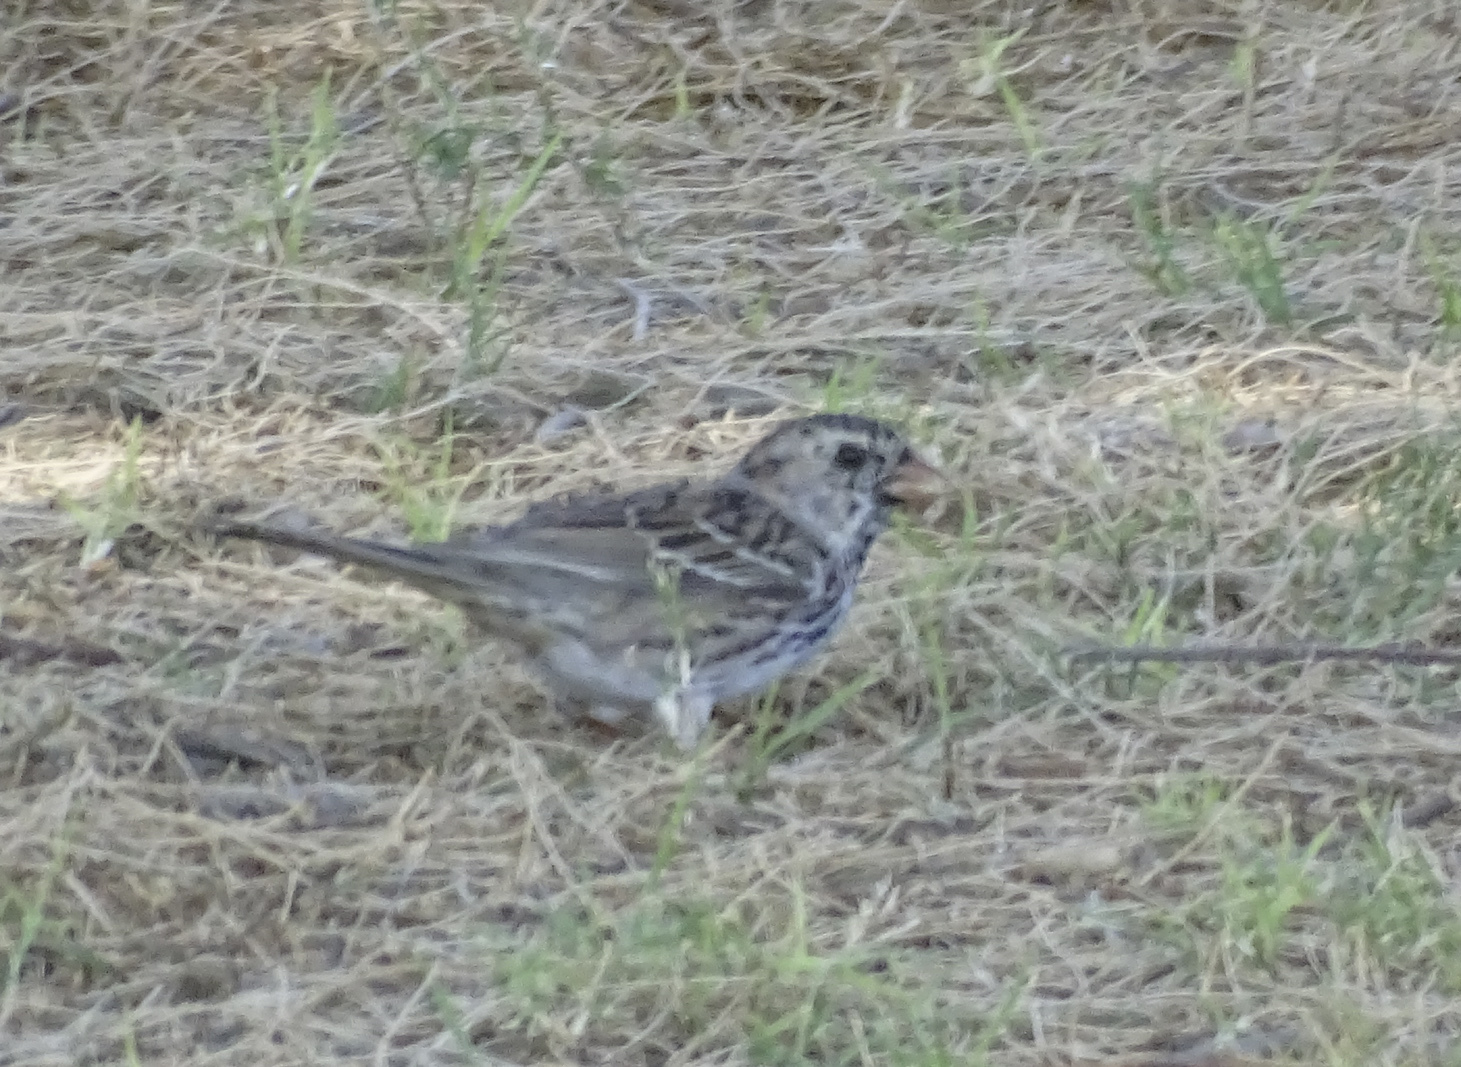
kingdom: Animalia
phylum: Chordata
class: Aves
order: Passeriformes
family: Passerellidae
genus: Zonotrichia
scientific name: Zonotrichia querula
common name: Harris's sparrow
